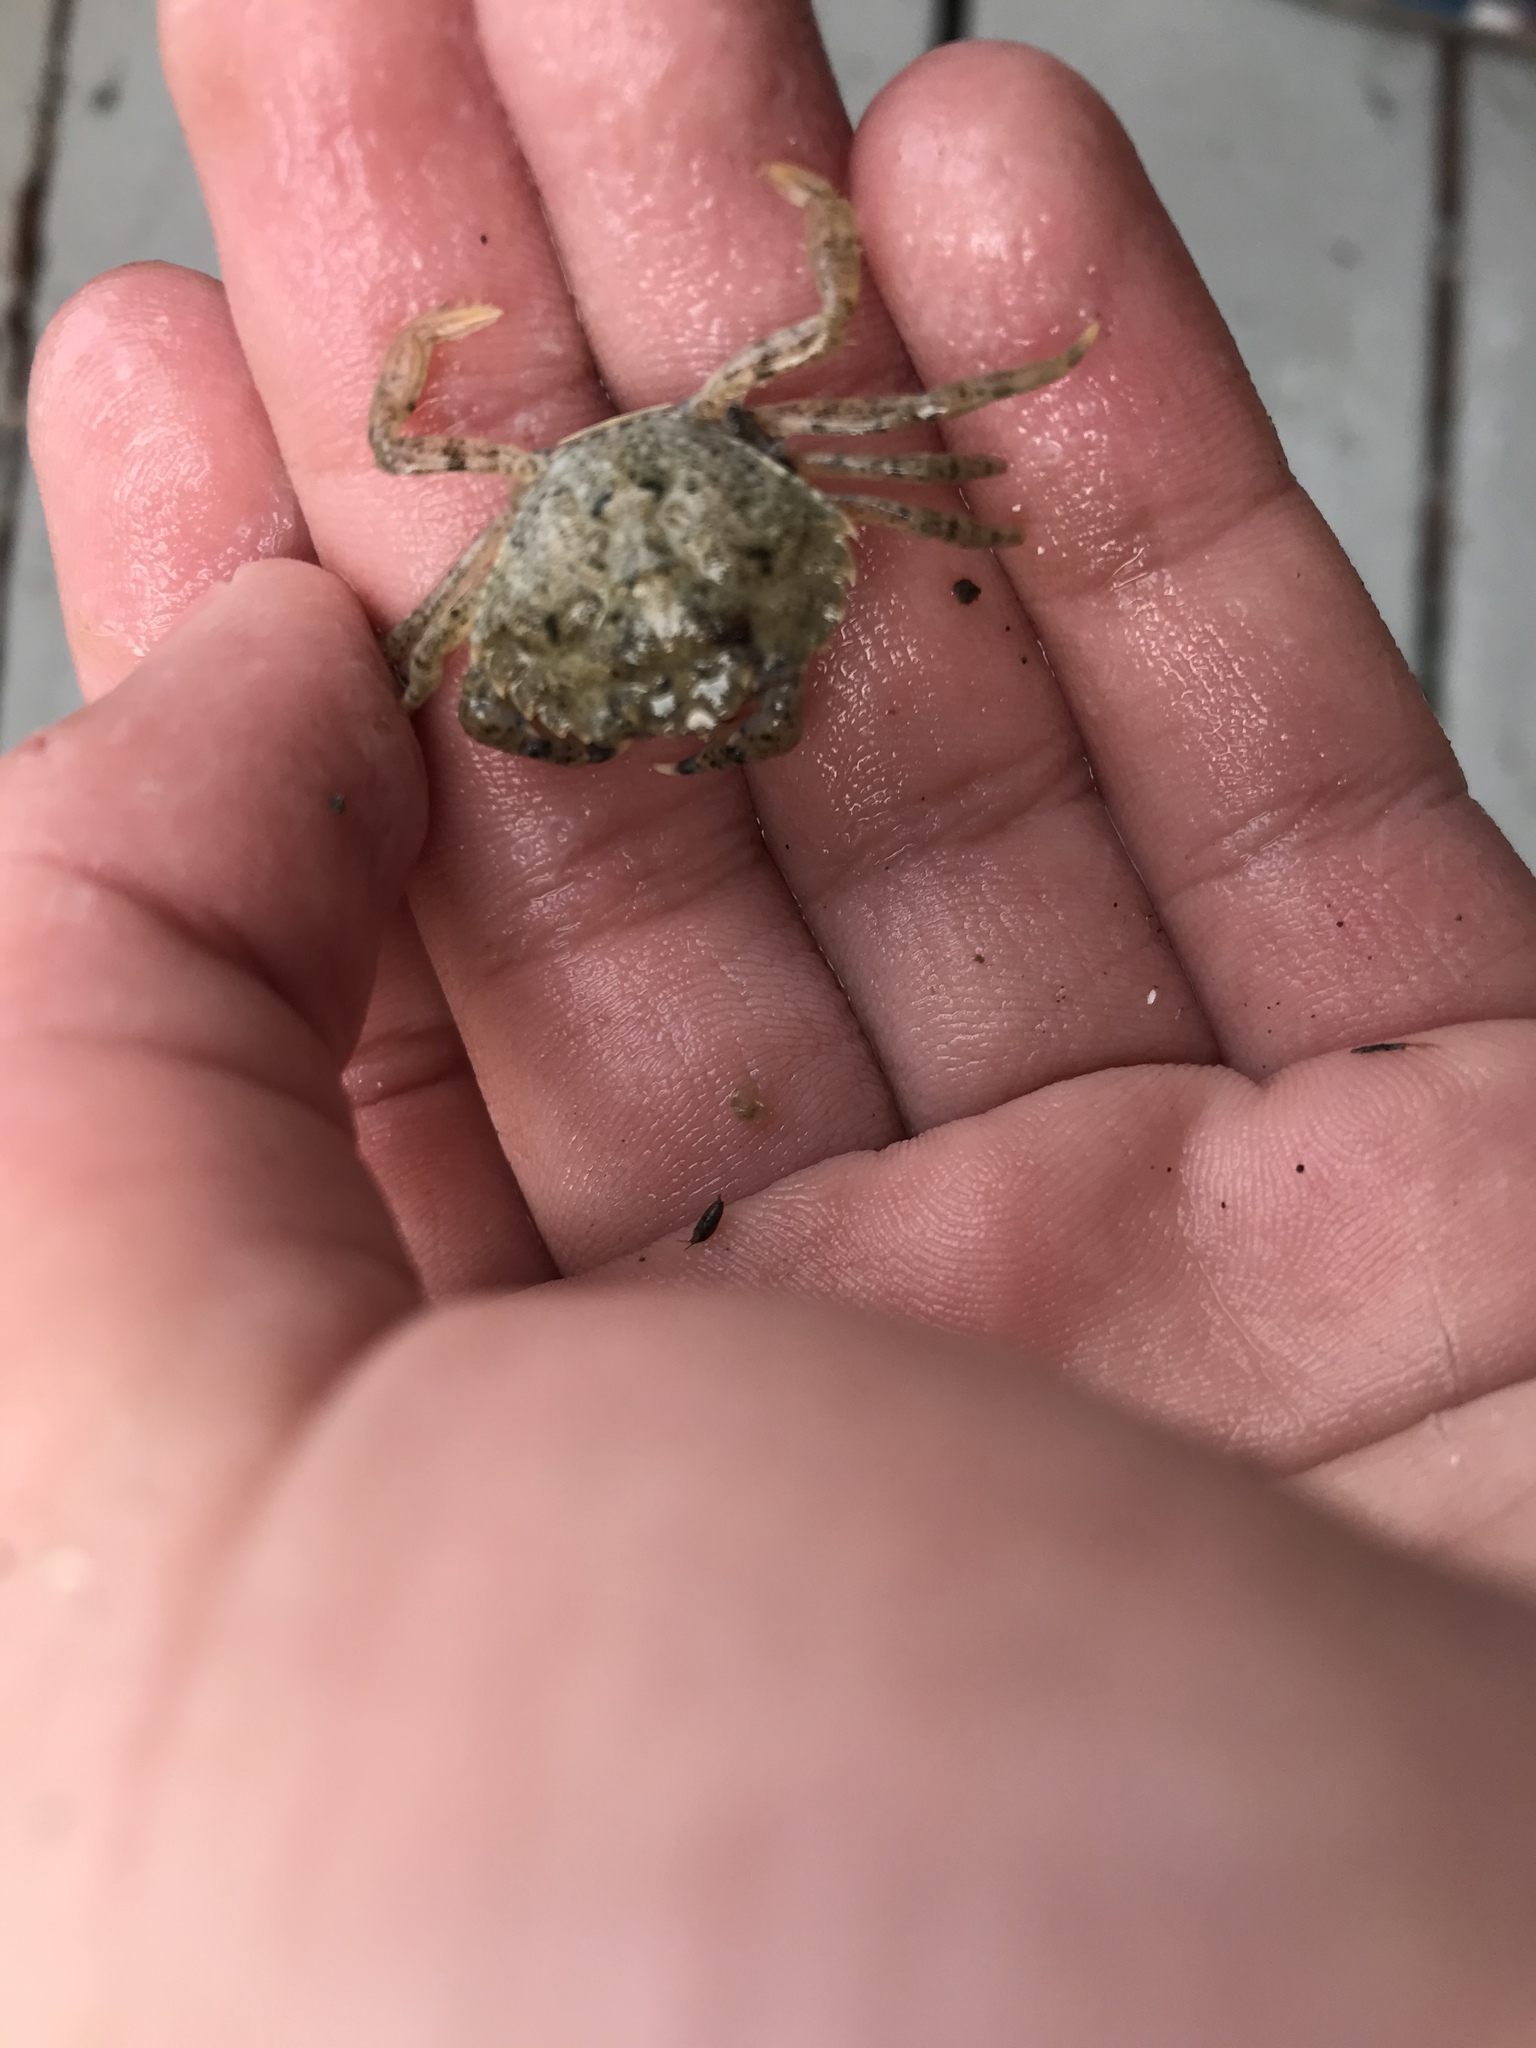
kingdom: Animalia
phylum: Arthropoda
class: Malacostraca
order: Decapoda
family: Carcinidae
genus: Carcinus
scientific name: Carcinus maenas
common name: European green crab
